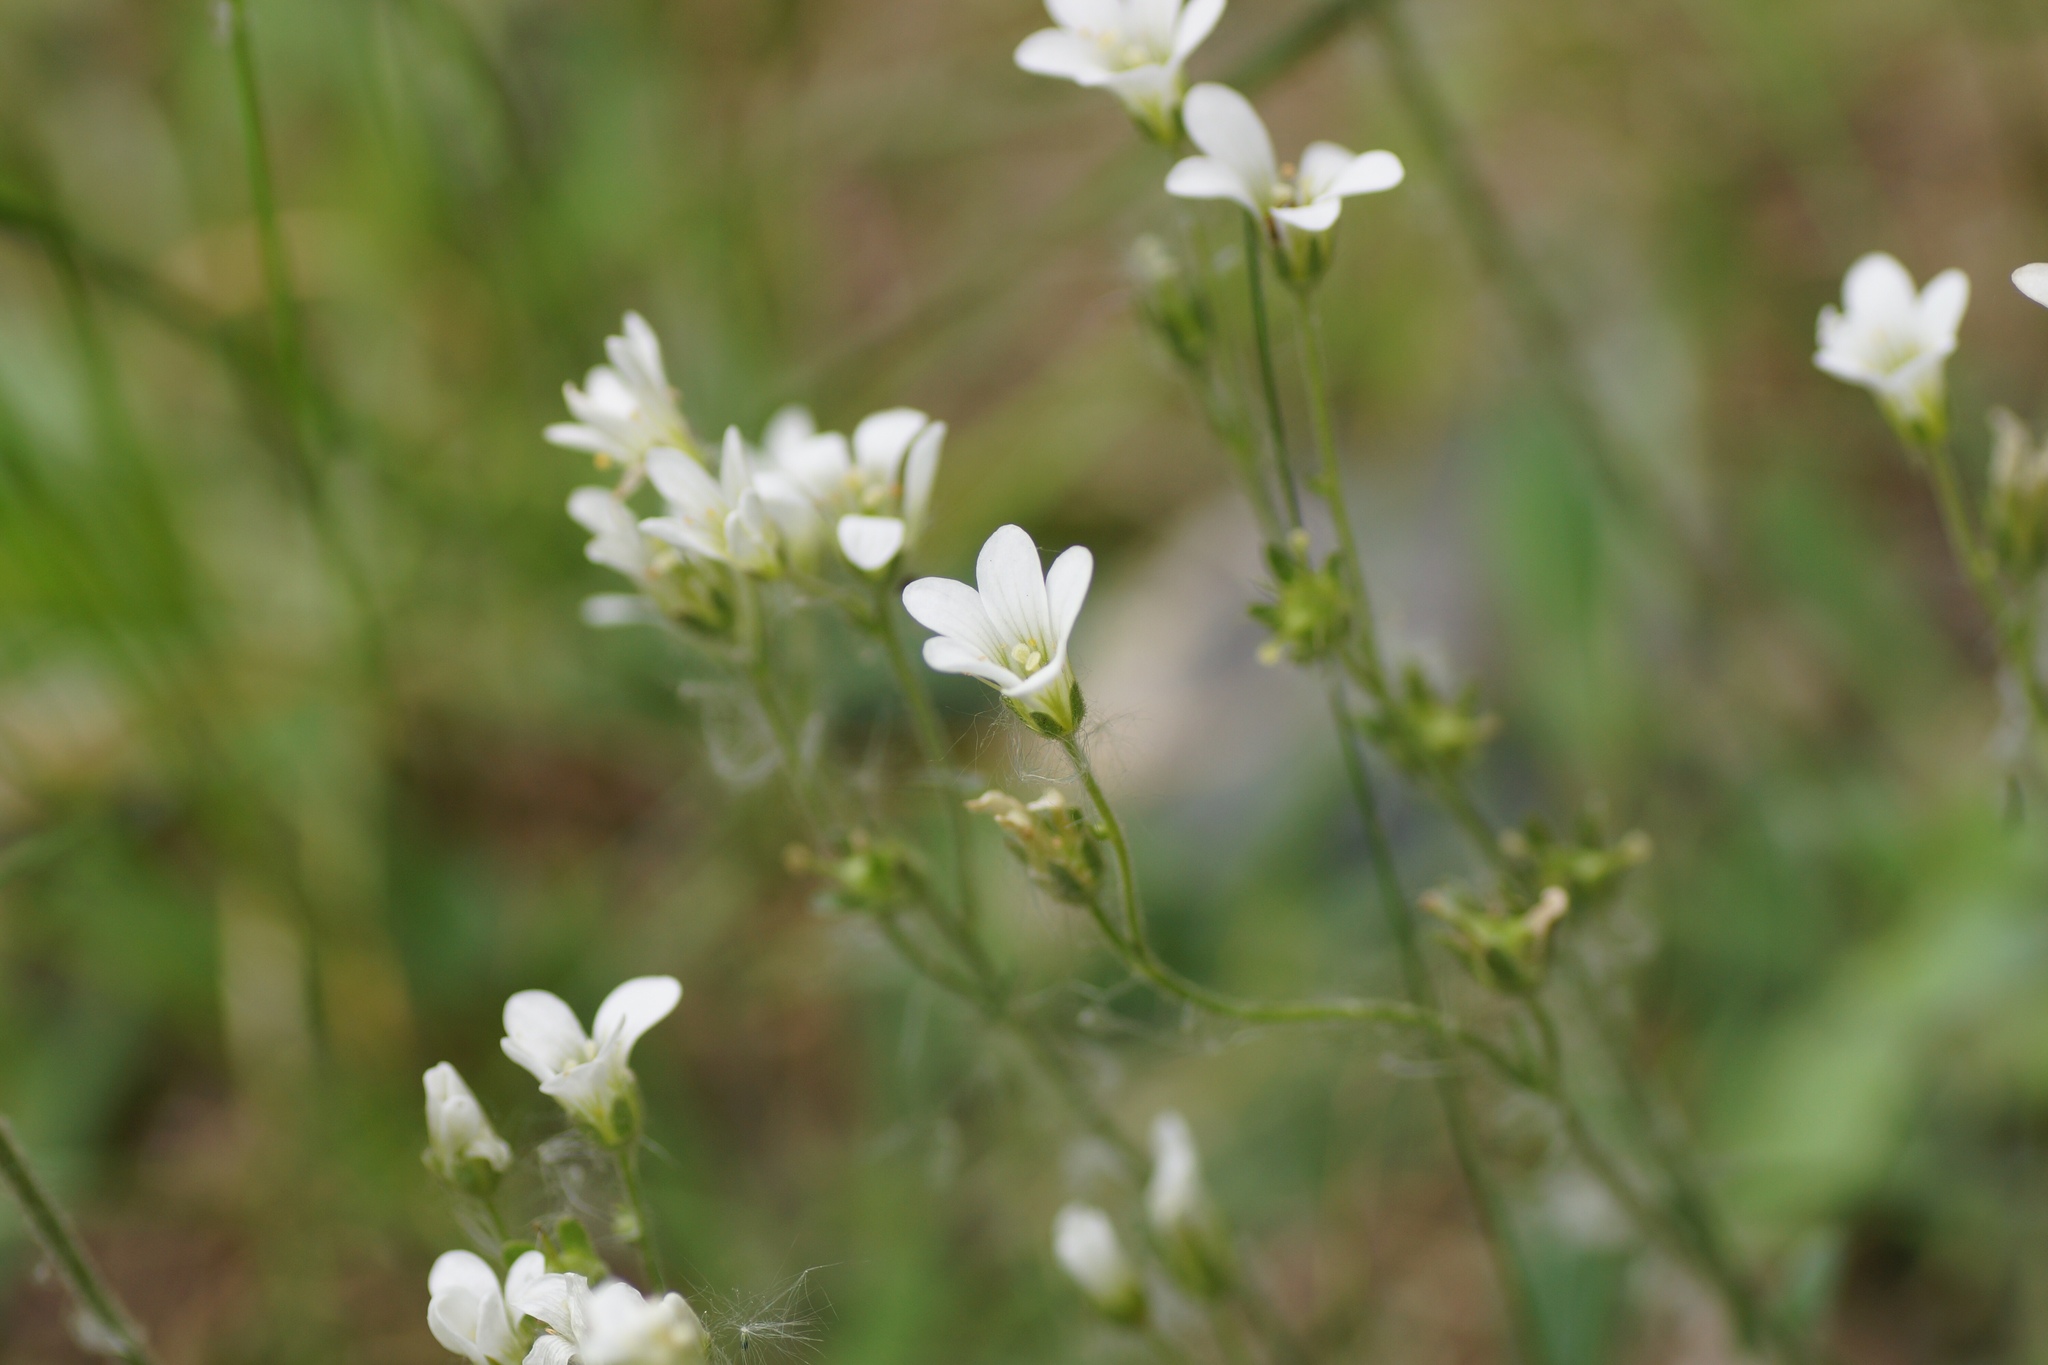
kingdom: Plantae
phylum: Tracheophyta
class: Magnoliopsida
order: Saxifragales
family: Saxifragaceae
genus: Saxifraga
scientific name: Saxifraga granulata
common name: Meadow saxifrage
